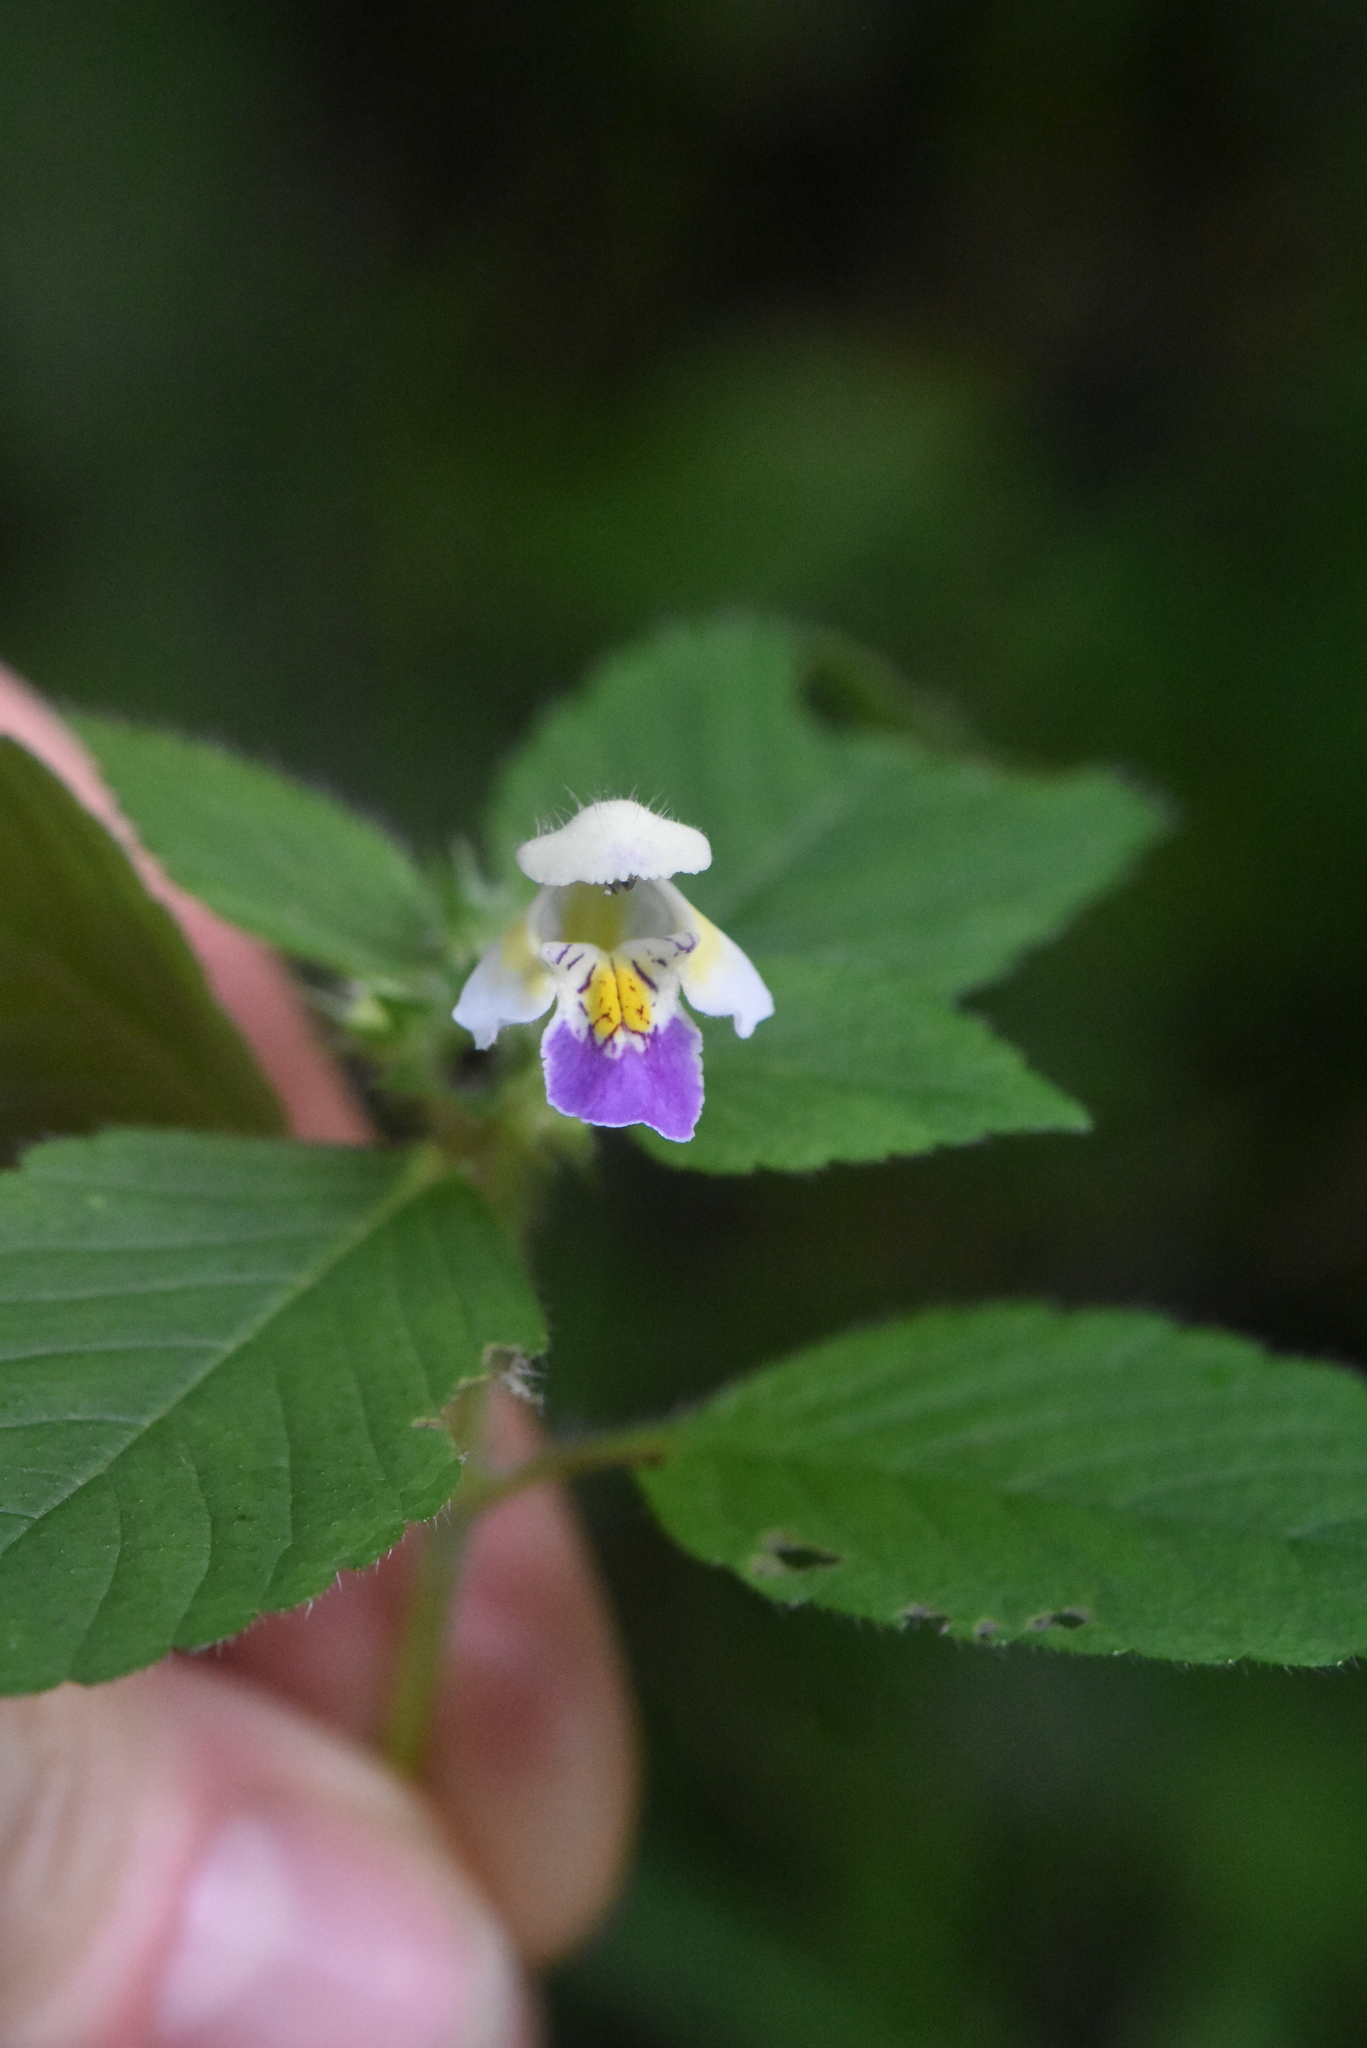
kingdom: Plantae
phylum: Tracheophyta
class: Magnoliopsida
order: Lamiales
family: Lamiaceae
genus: Galeopsis
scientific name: Galeopsis speciosa
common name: Large-flowered hemp-nettle
